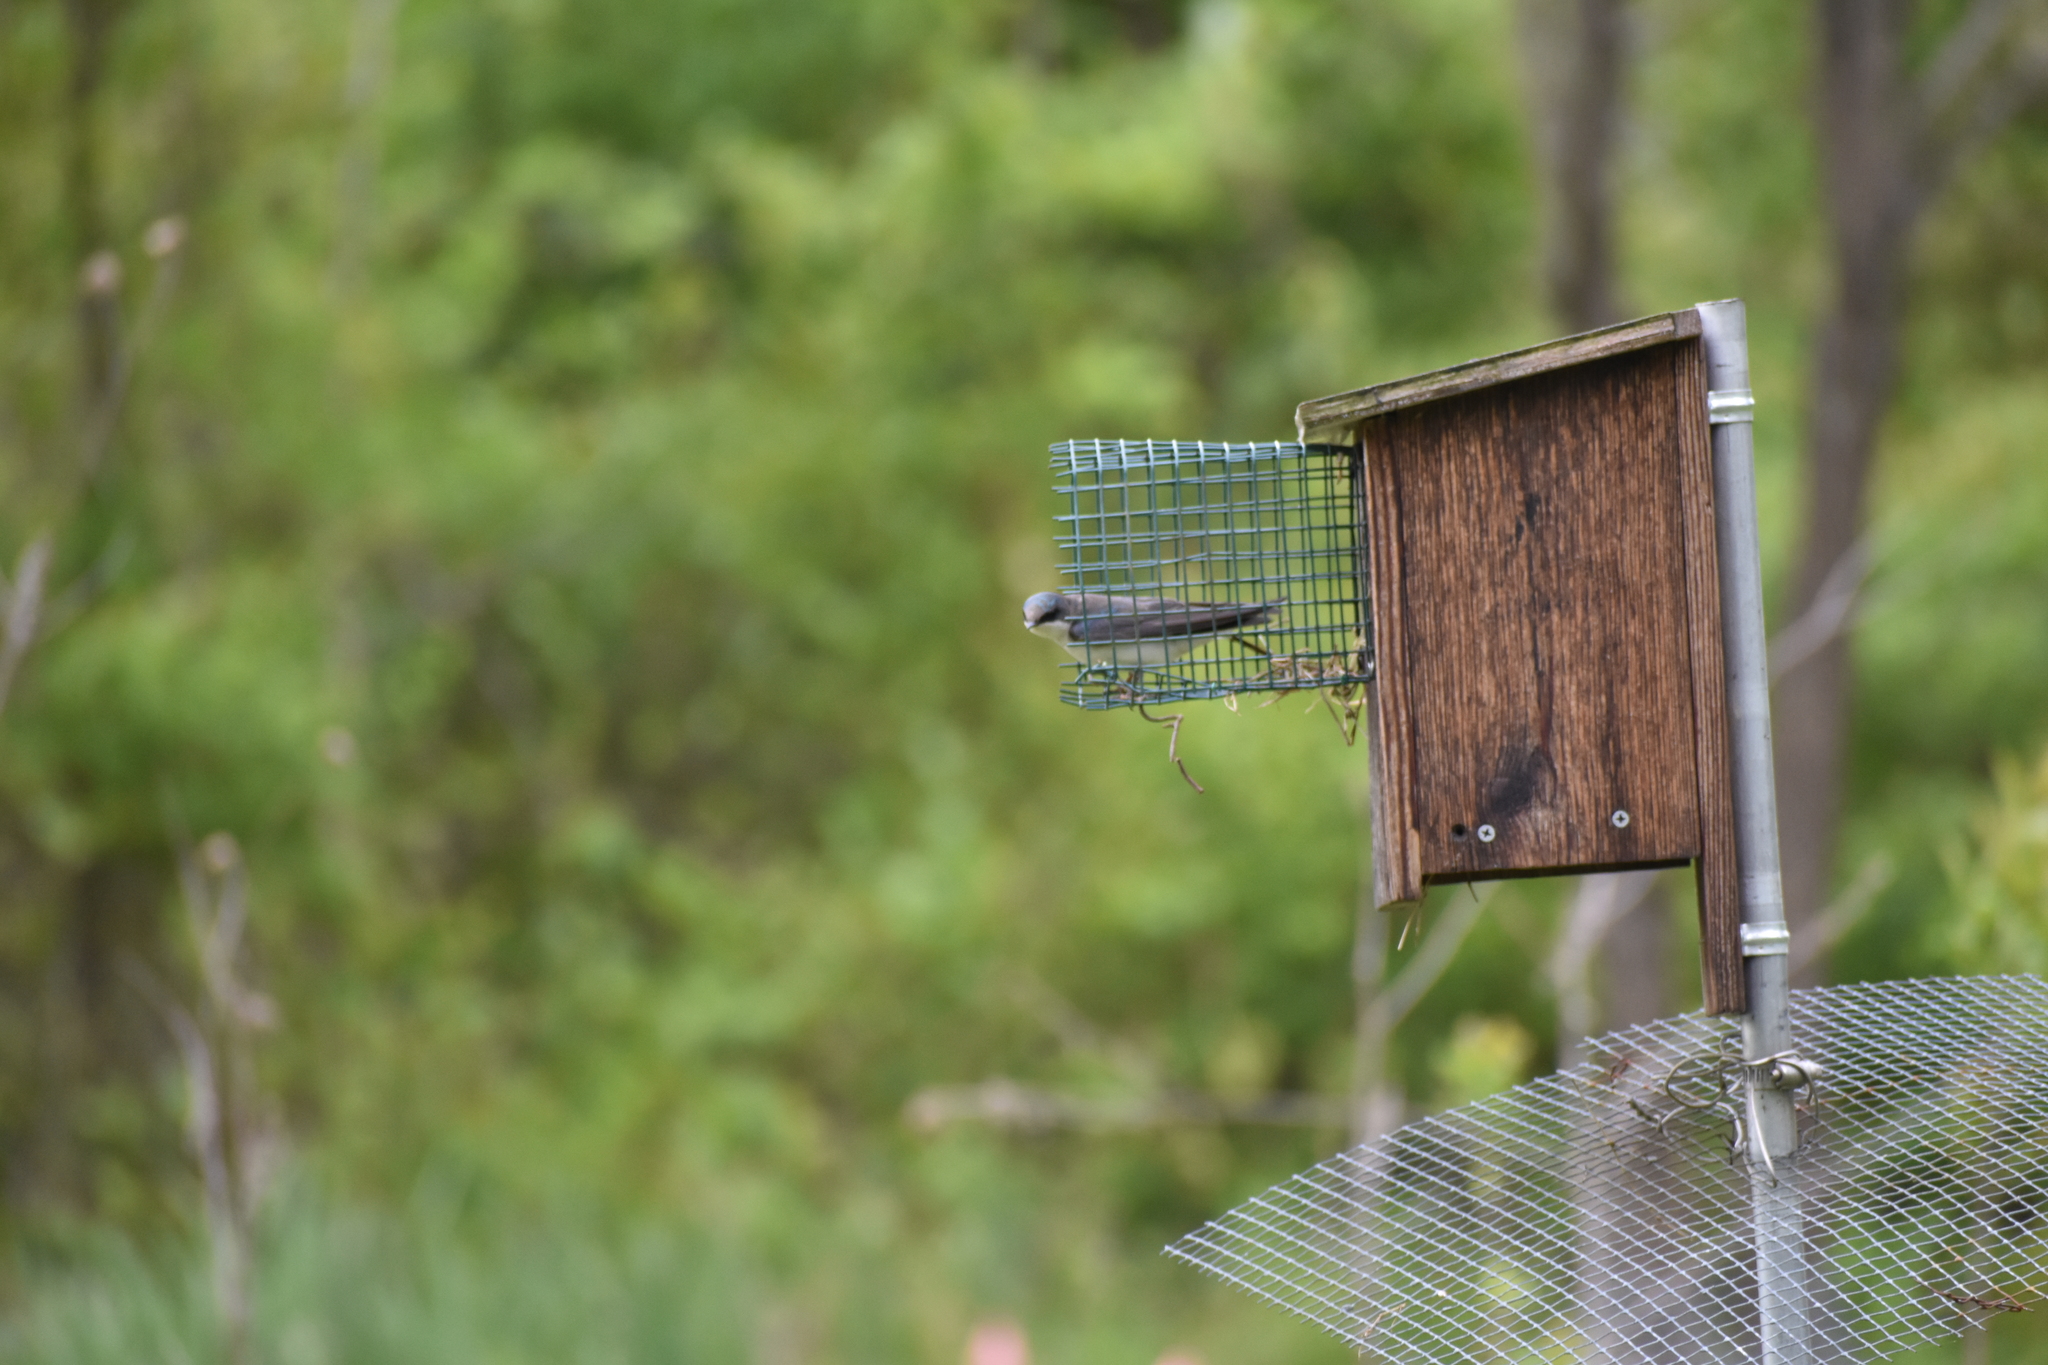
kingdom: Animalia
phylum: Chordata
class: Aves
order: Passeriformes
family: Hirundinidae
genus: Tachycineta
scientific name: Tachycineta bicolor
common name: Tree swallow
